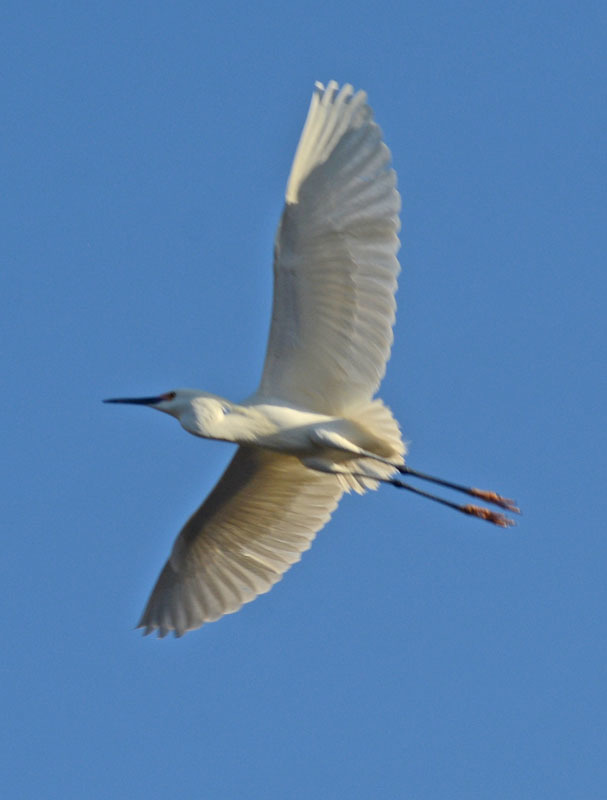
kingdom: Animalia
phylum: Chordata
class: Aves
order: Pelecaniformes
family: Ardeidae
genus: Egretta
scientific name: Egretta thula
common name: Snowy egret
